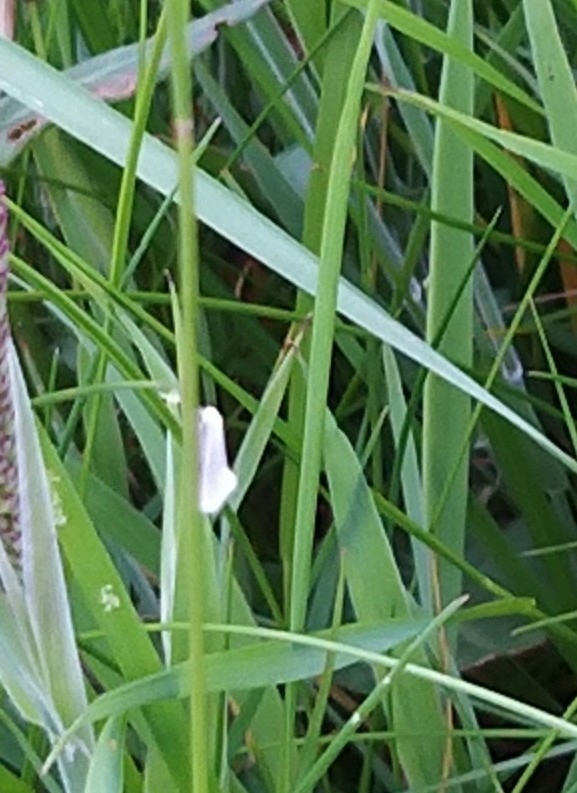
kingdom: Animalia
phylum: Arthropoda
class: Insecta
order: Lepidoptera
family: Elachistidae
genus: Elachista
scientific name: Elachista argentella
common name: Swan-feather dwarf
